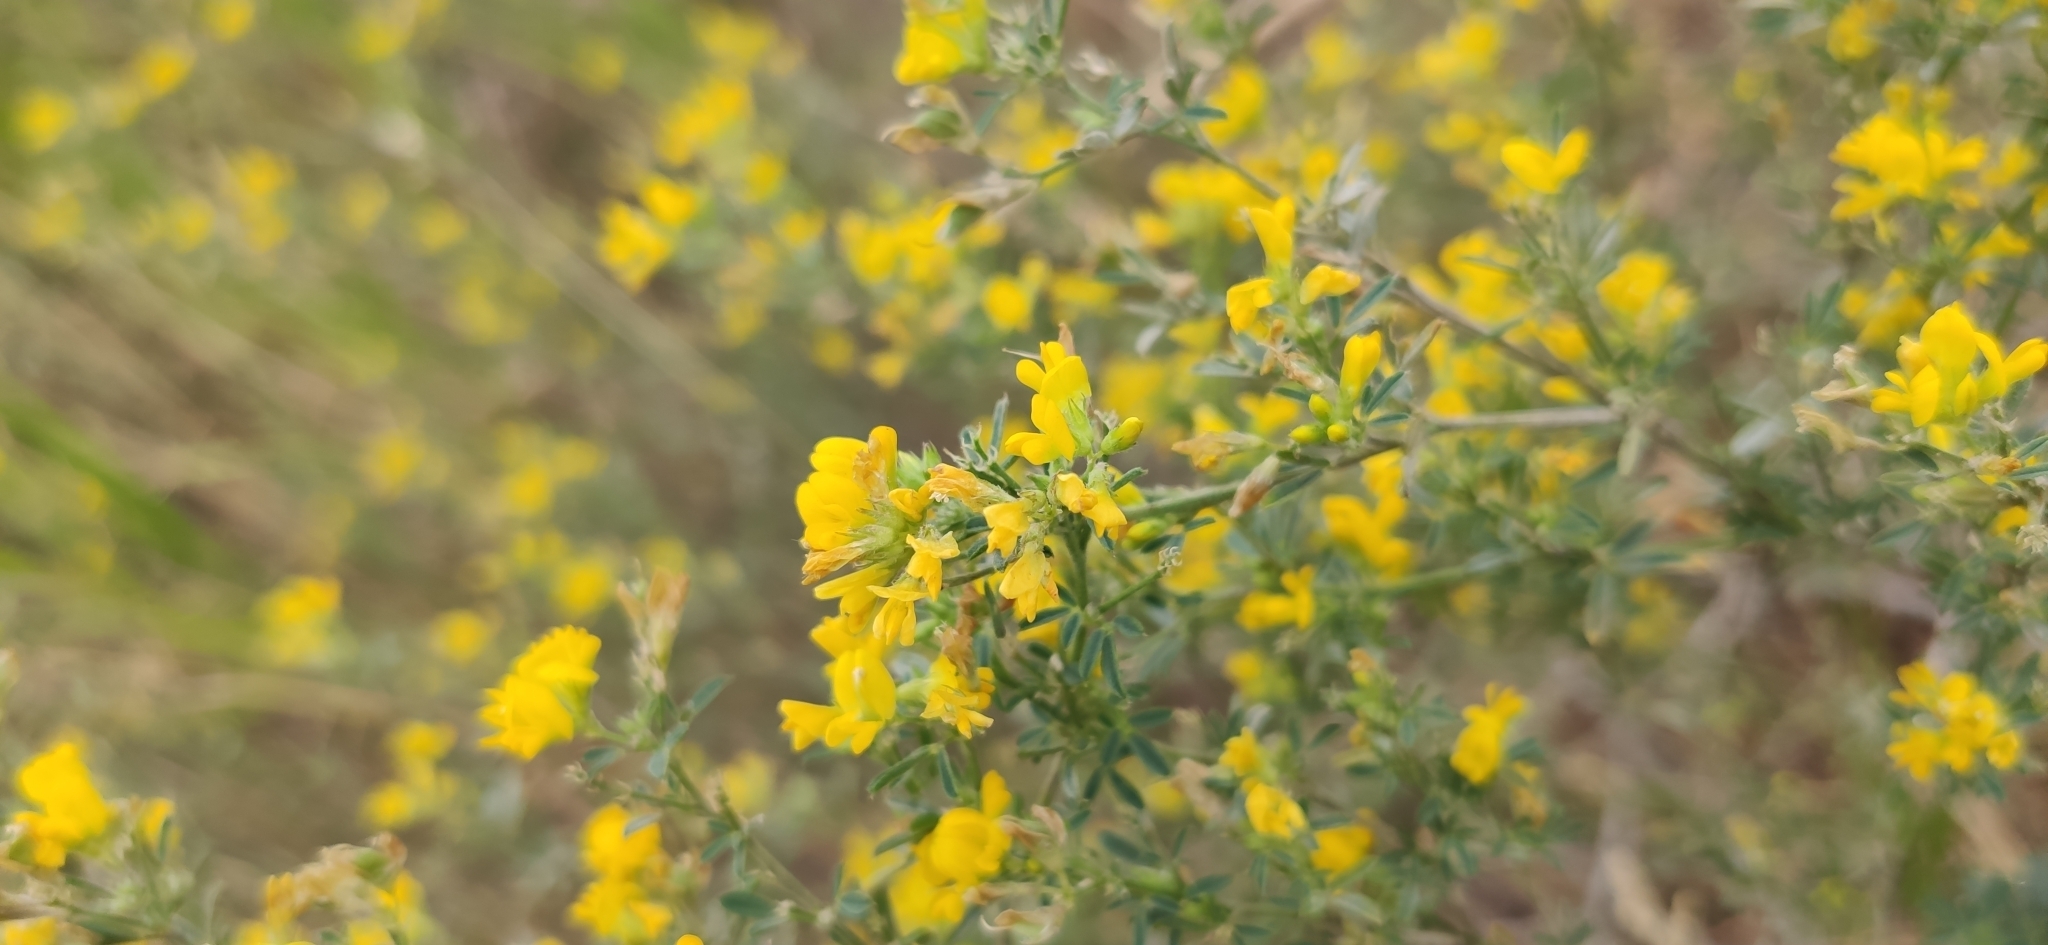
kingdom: Plantae
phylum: Tracheophyta
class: Magnoliopsida
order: Fabales
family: Fabaceae
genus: Medicago
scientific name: Medicago falcata
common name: Sickle medick
